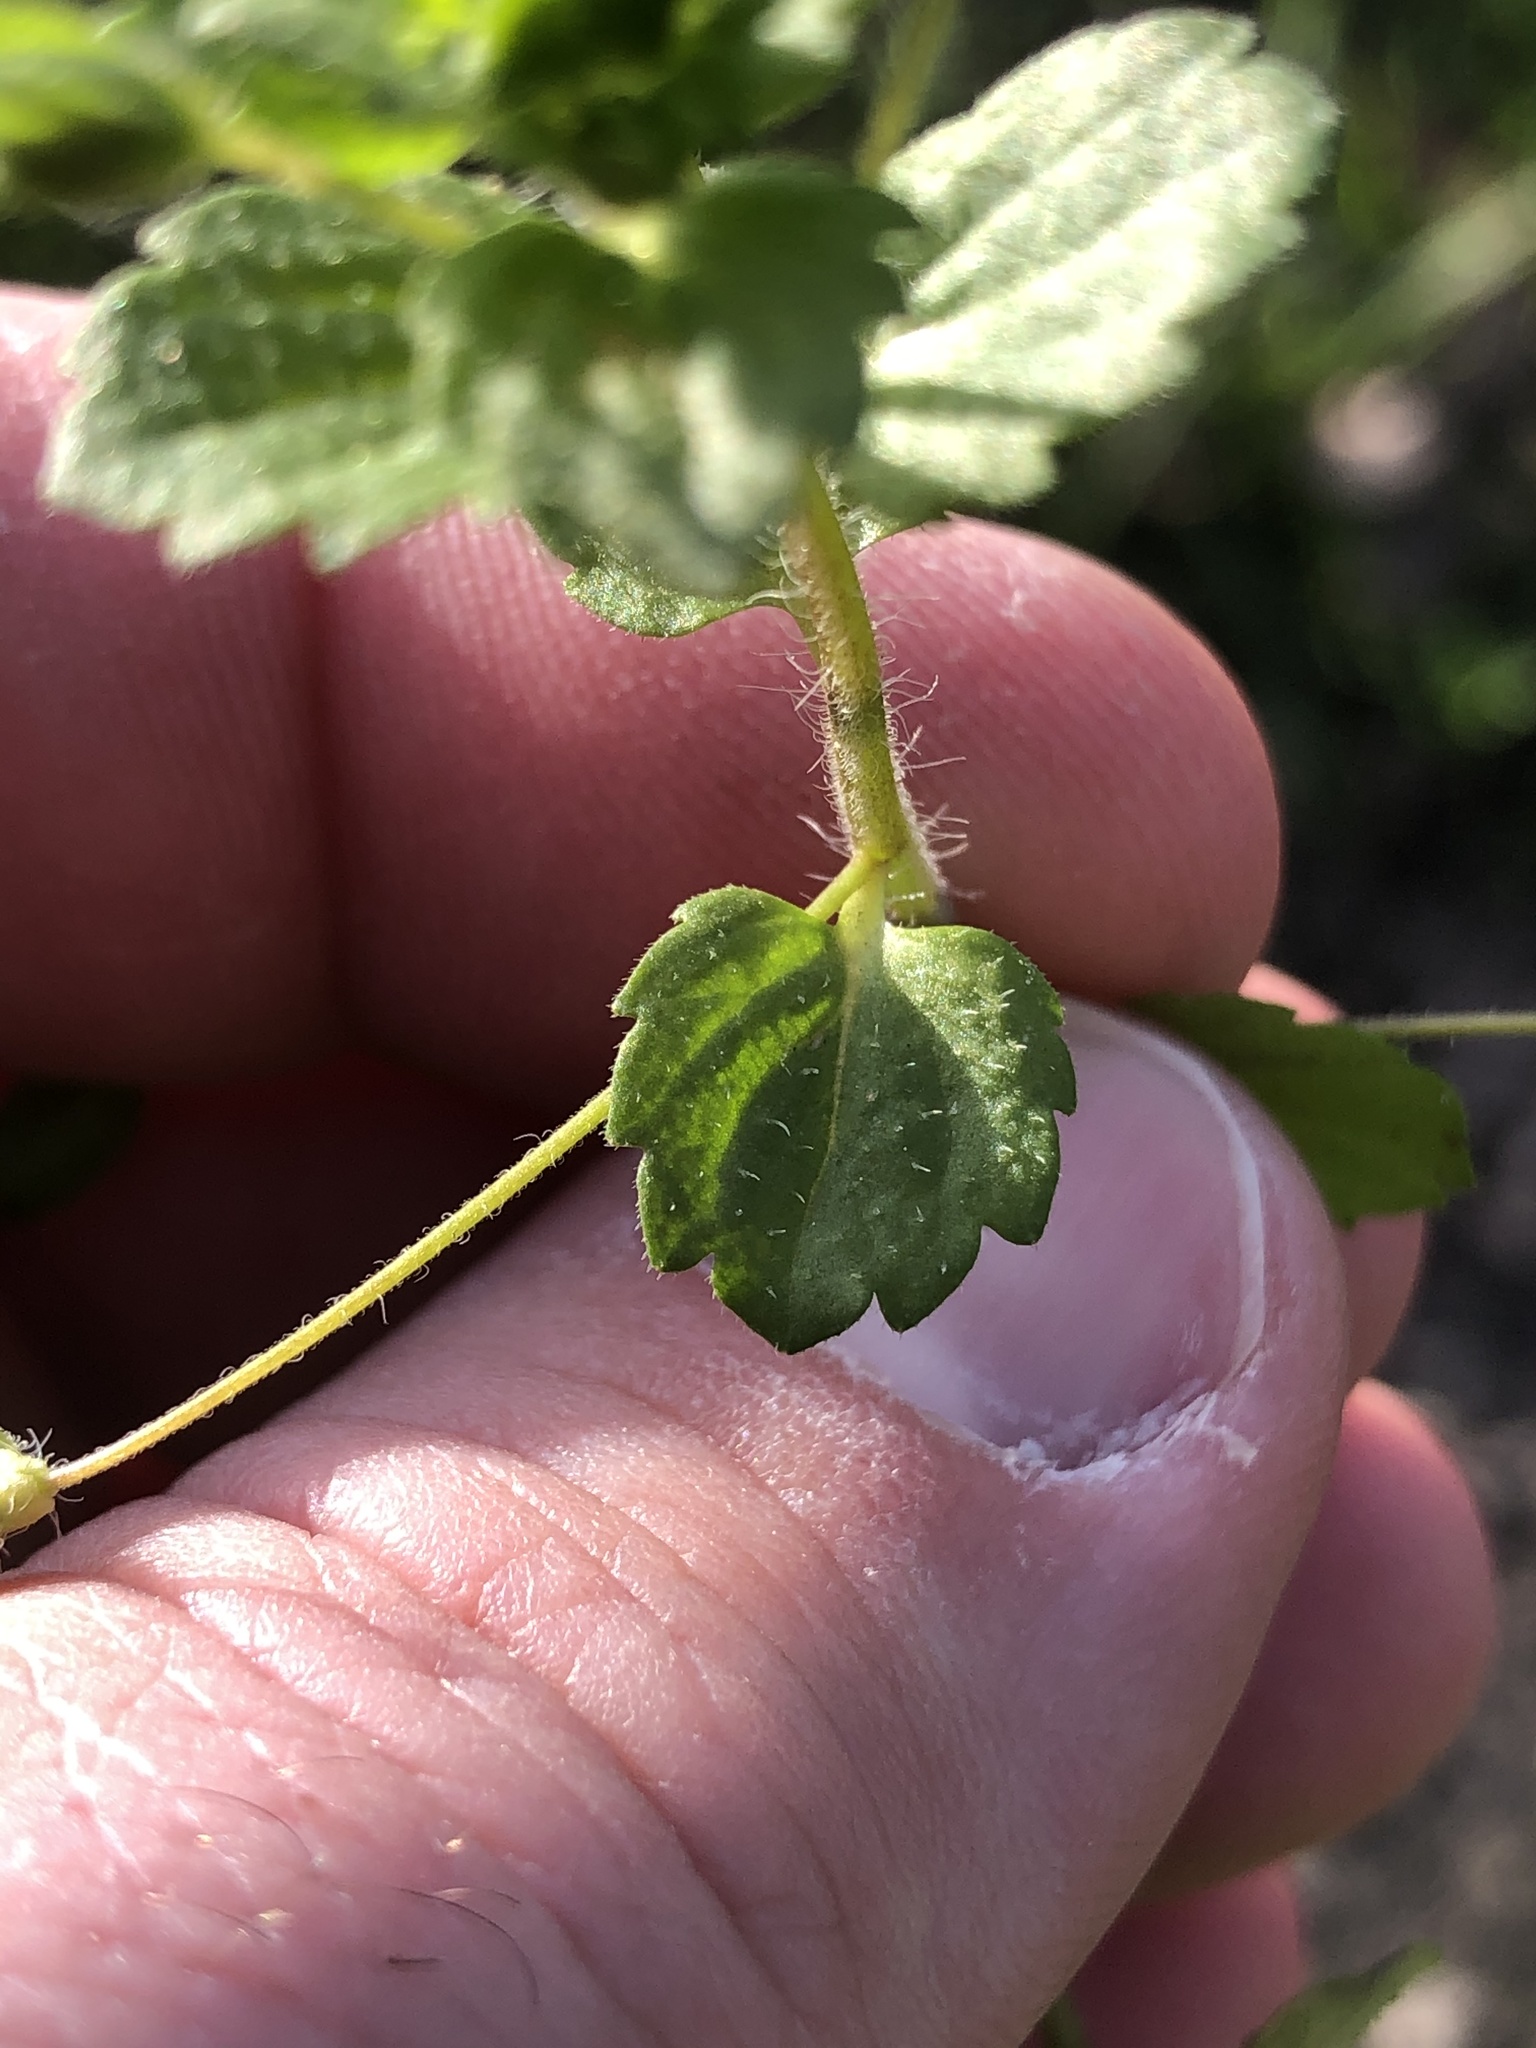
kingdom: Plantae
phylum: Tracheophyta
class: Magnoliopsida
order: Lamiales
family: Plantaginaceae
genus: Veronica
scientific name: Veronica persica
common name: Common field-speedwell
